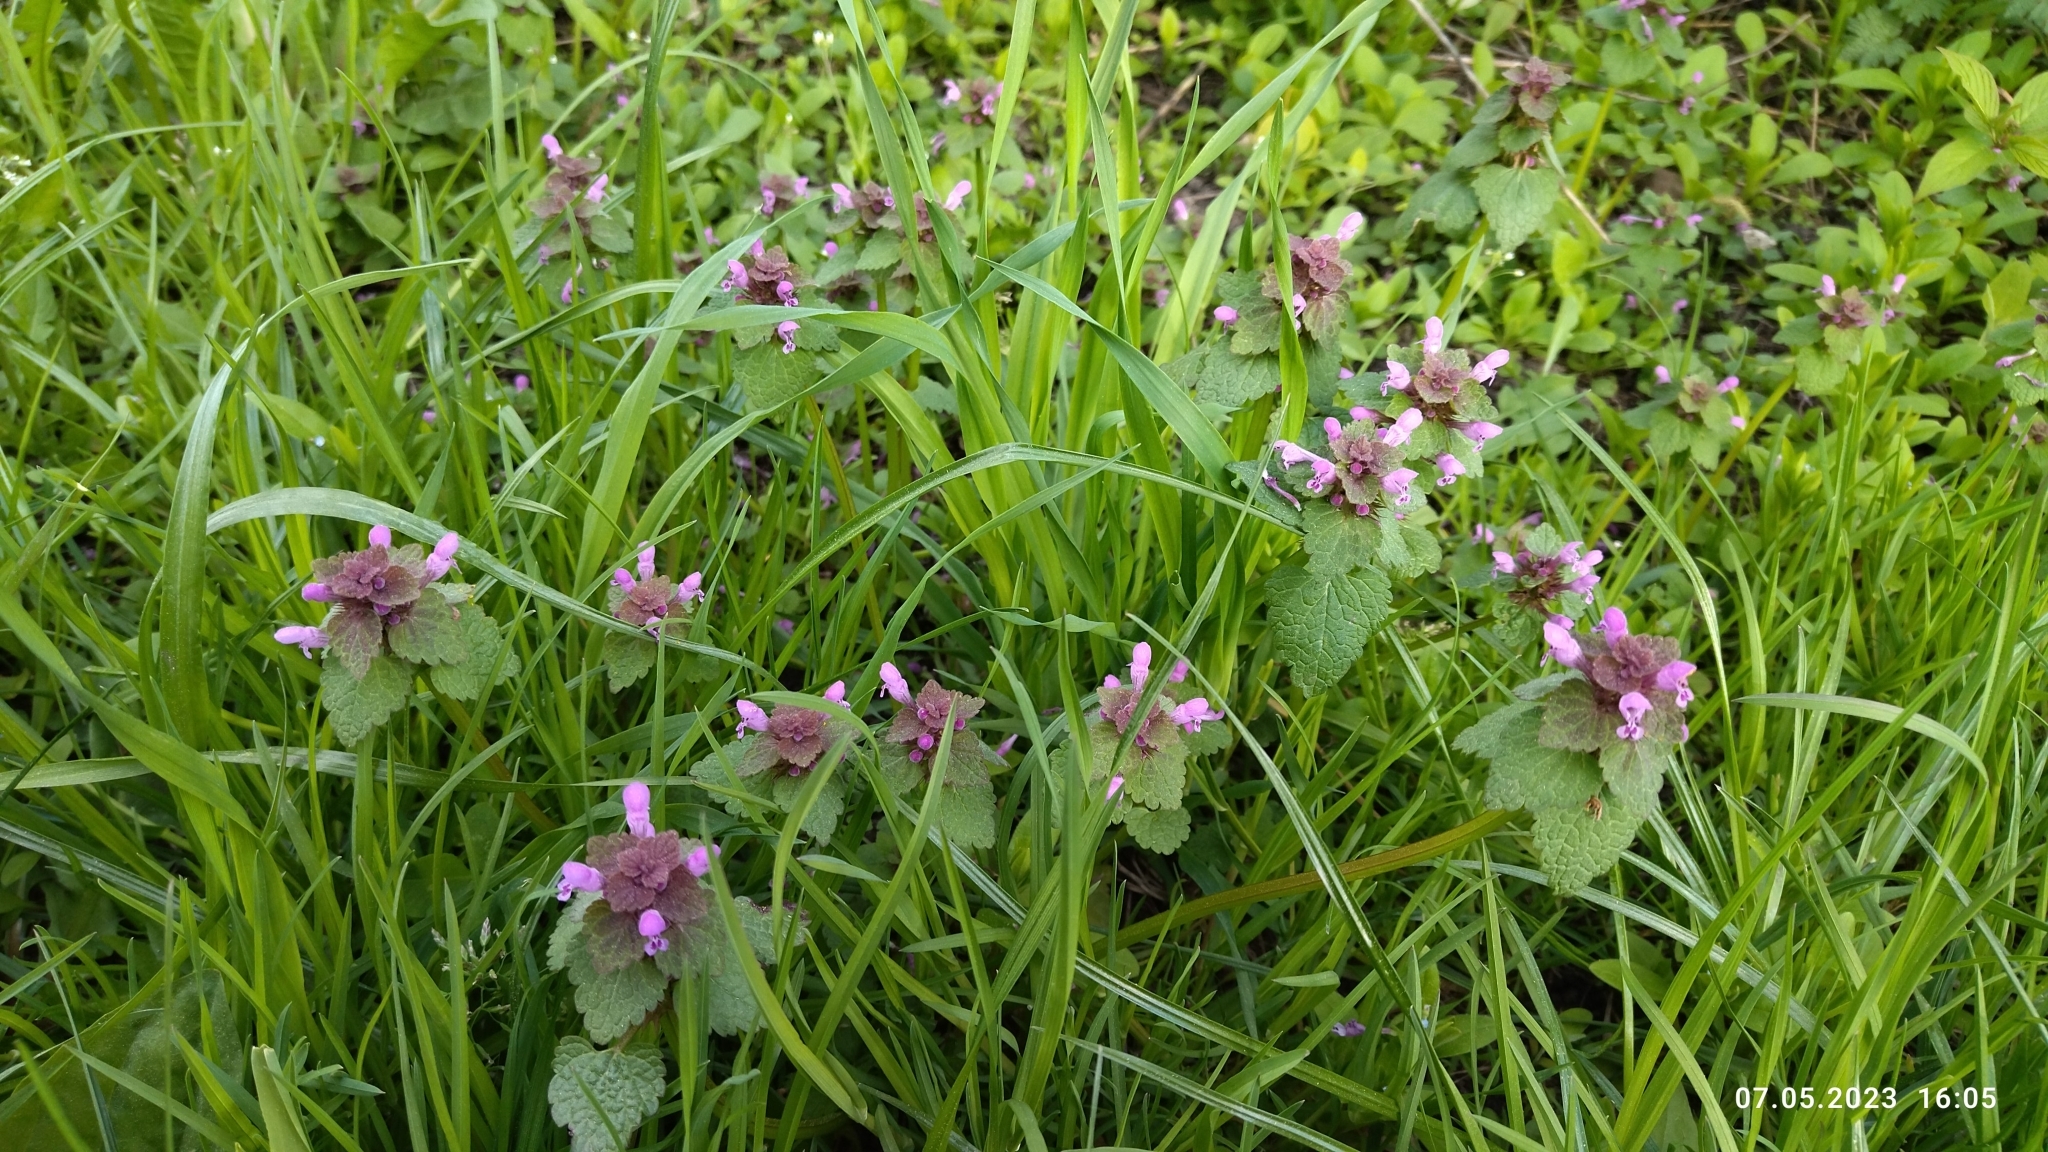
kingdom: Plantae
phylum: Tracheophyta
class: Magnoliopsida
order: Lamiales
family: Lamiaceae
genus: Lamium
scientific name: Lamium purpureum
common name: Red dead-nettle
